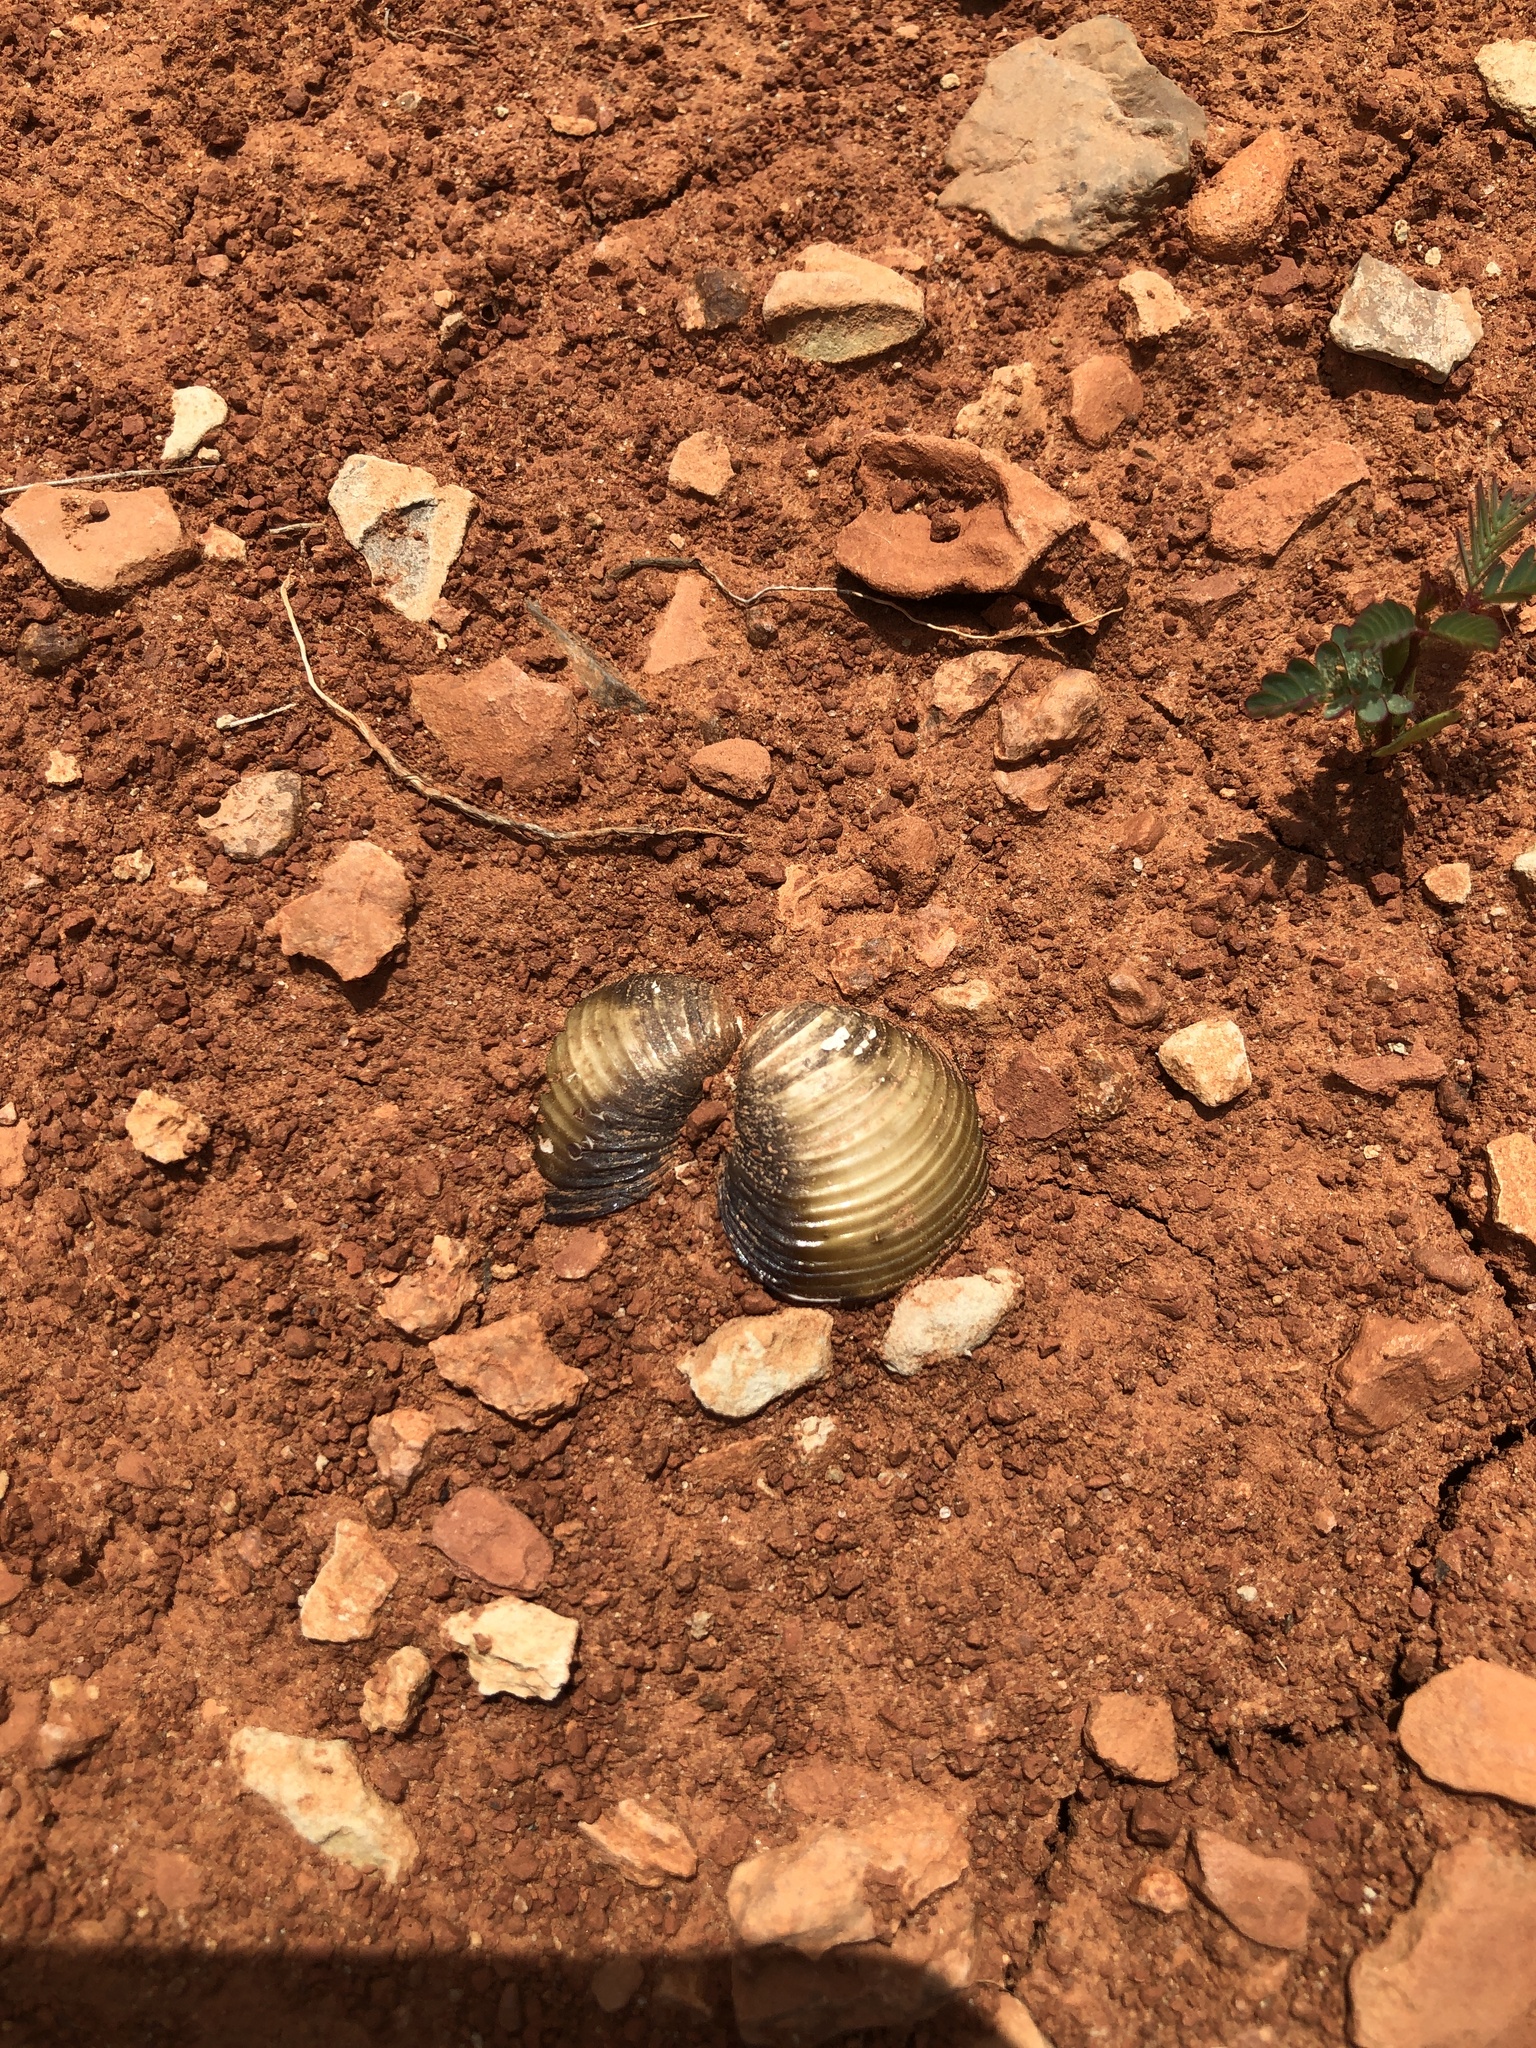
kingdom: Animalia
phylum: Mollusca
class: Bivalvia
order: Venerida
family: Cyrenidae
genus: Corbicula
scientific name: Corbicula fluminea
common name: Asian clam
